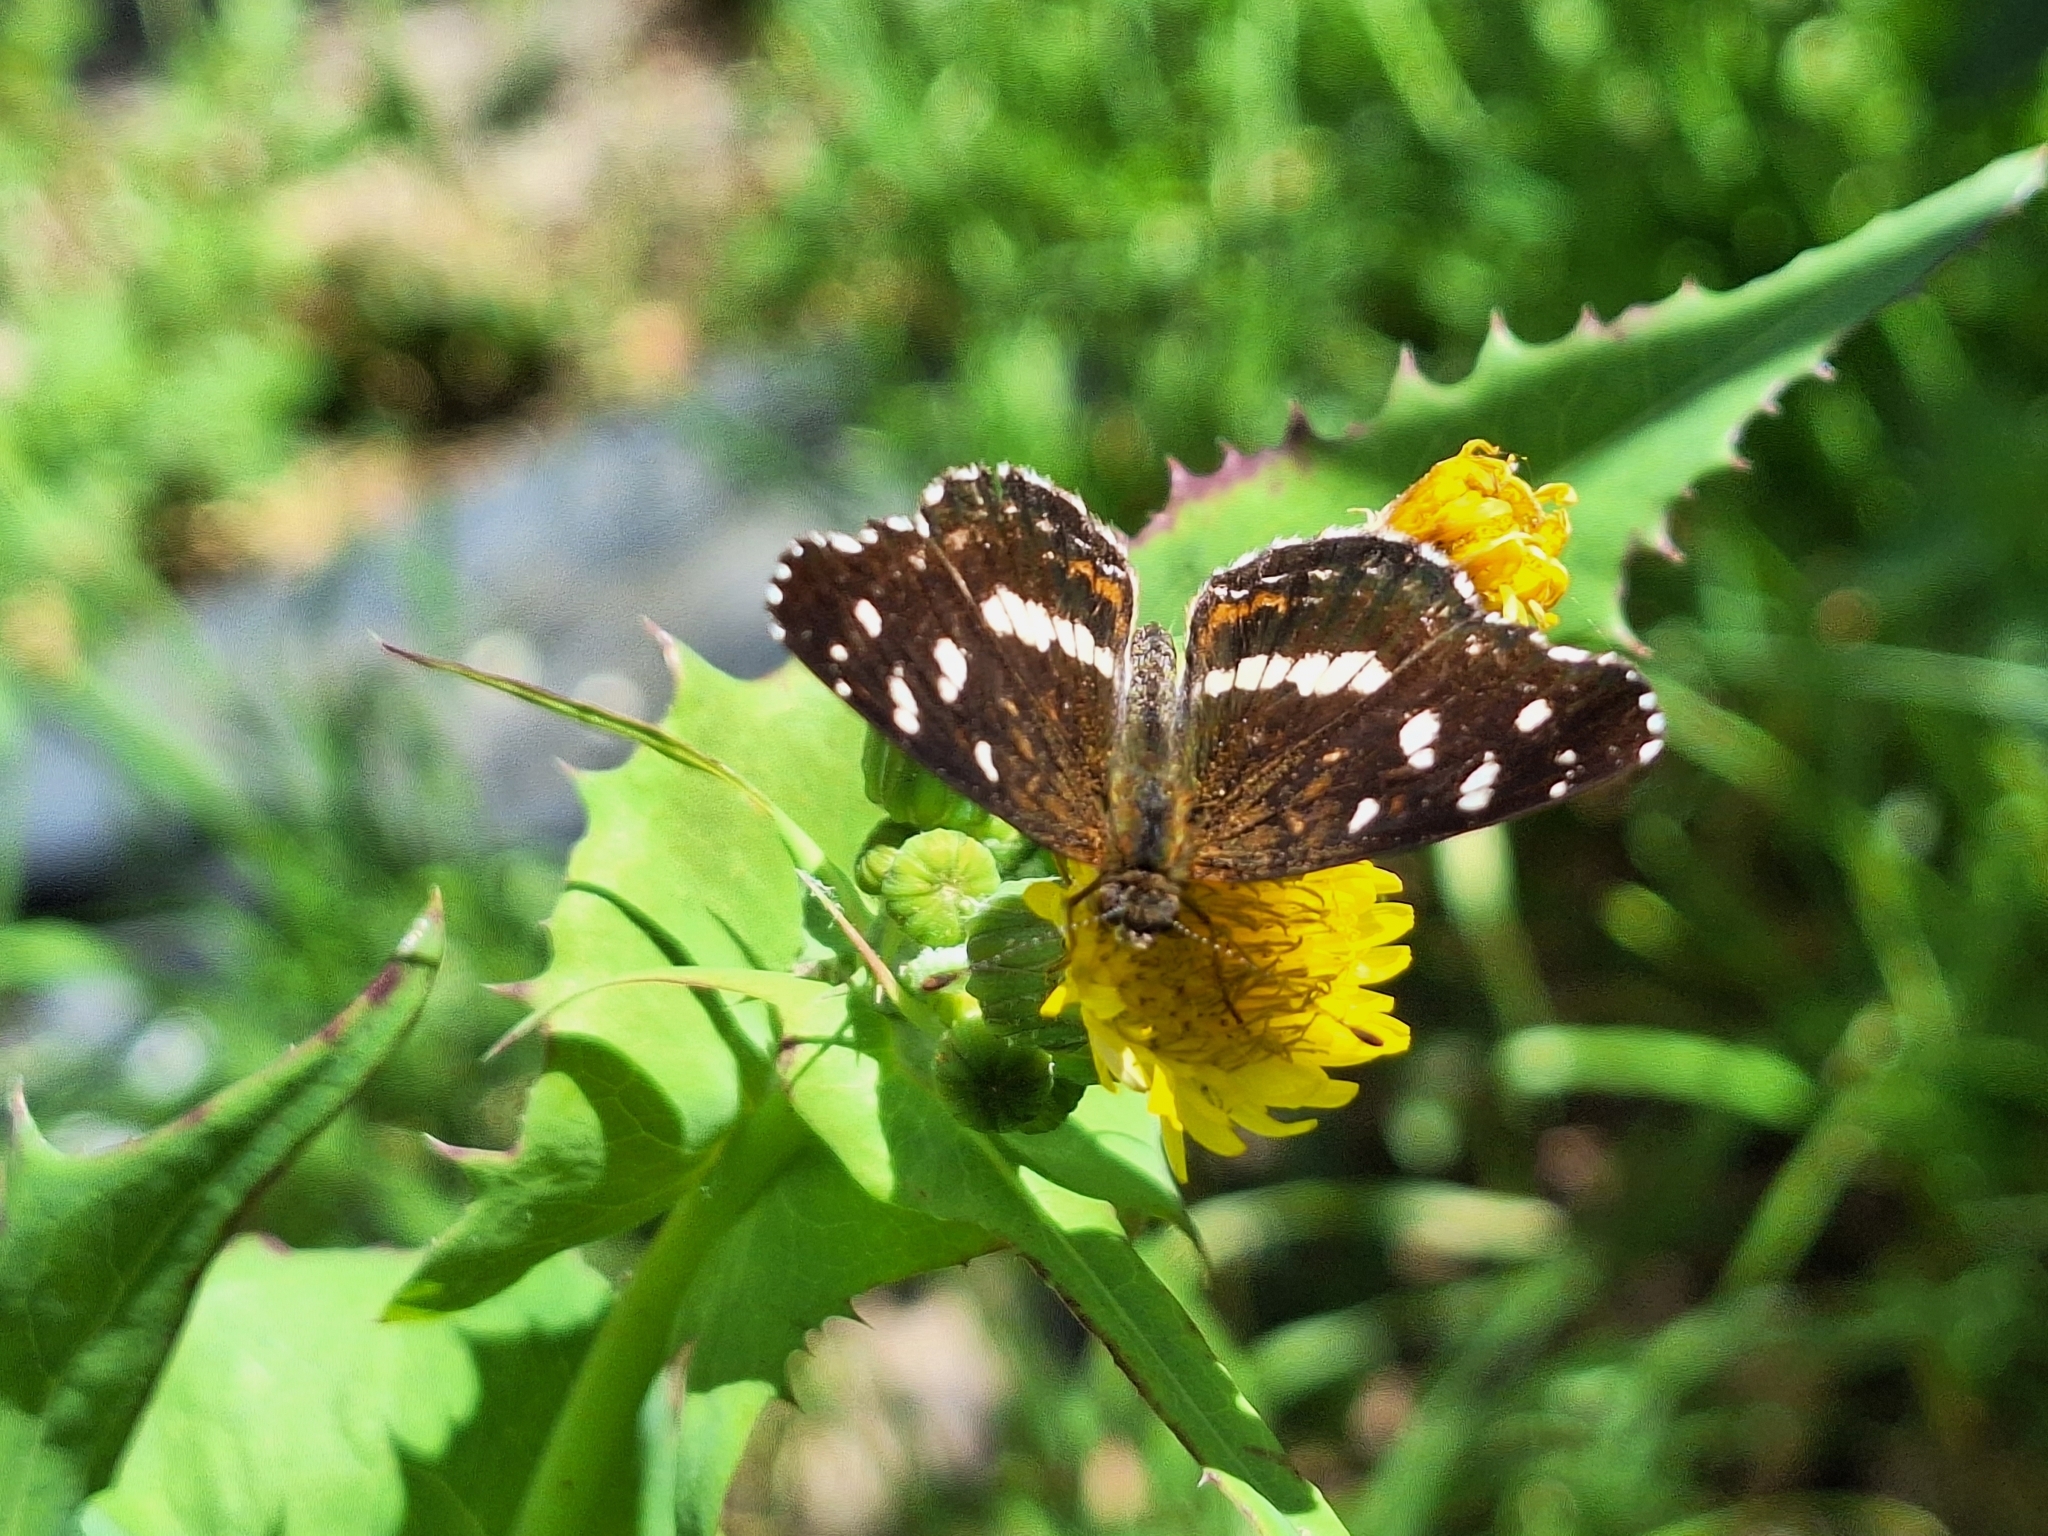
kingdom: Animalia
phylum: Arthropoda
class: Insecta
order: Lepidoptera
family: Nymphalidae
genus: Ortilia
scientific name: Ortilia ithra
